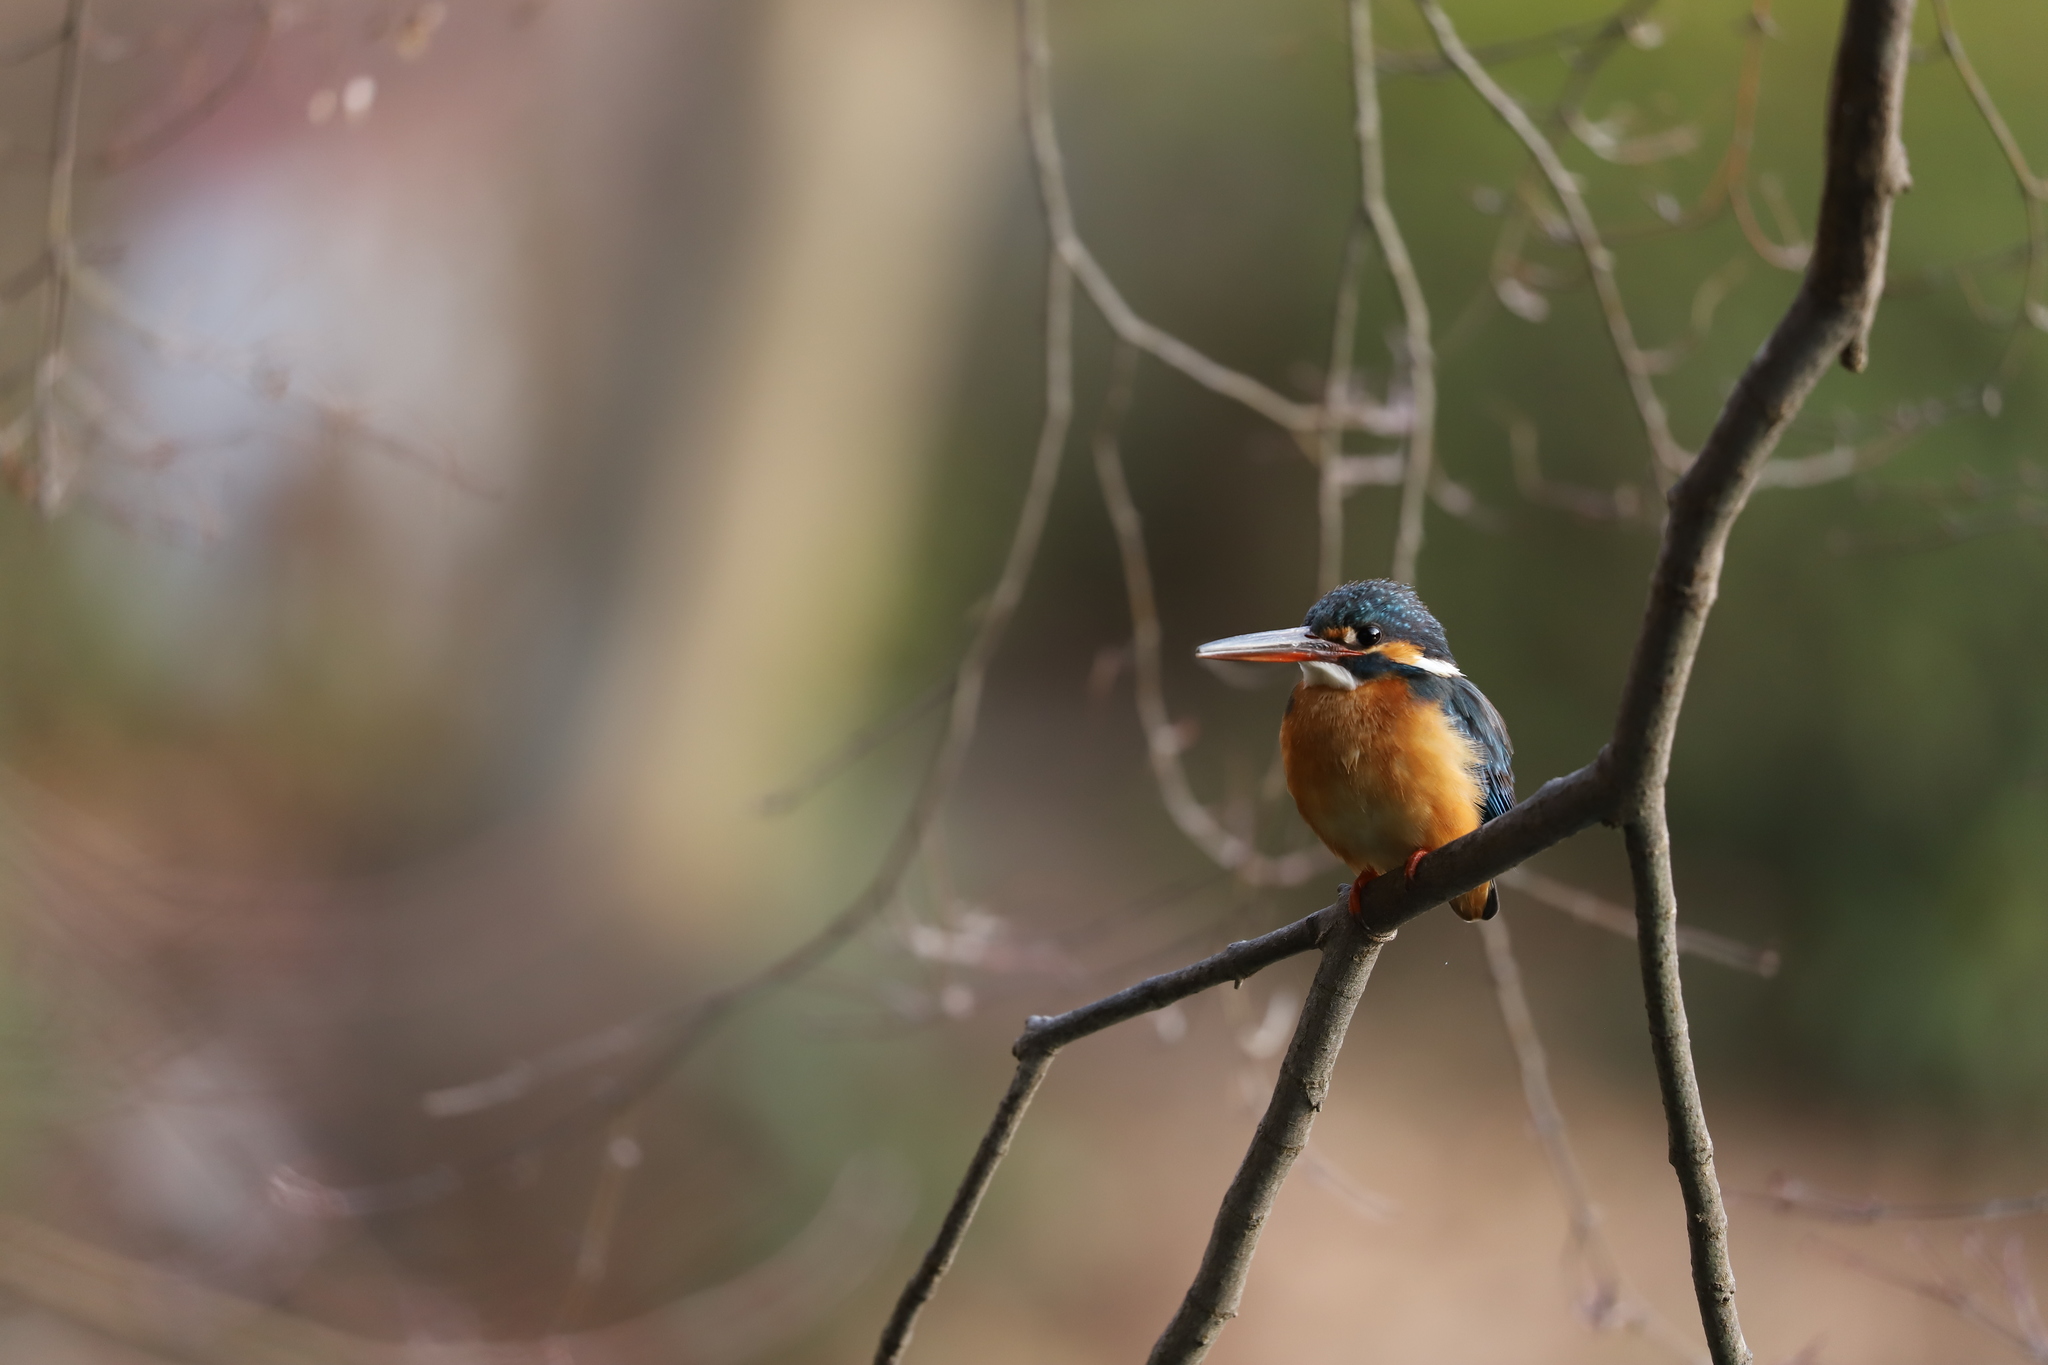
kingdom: Animalia
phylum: Chordata
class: Aves
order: Coraciiformes
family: Alcedinidae
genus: Alcedo
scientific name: Alcedo atthis
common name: Common kingfisher
